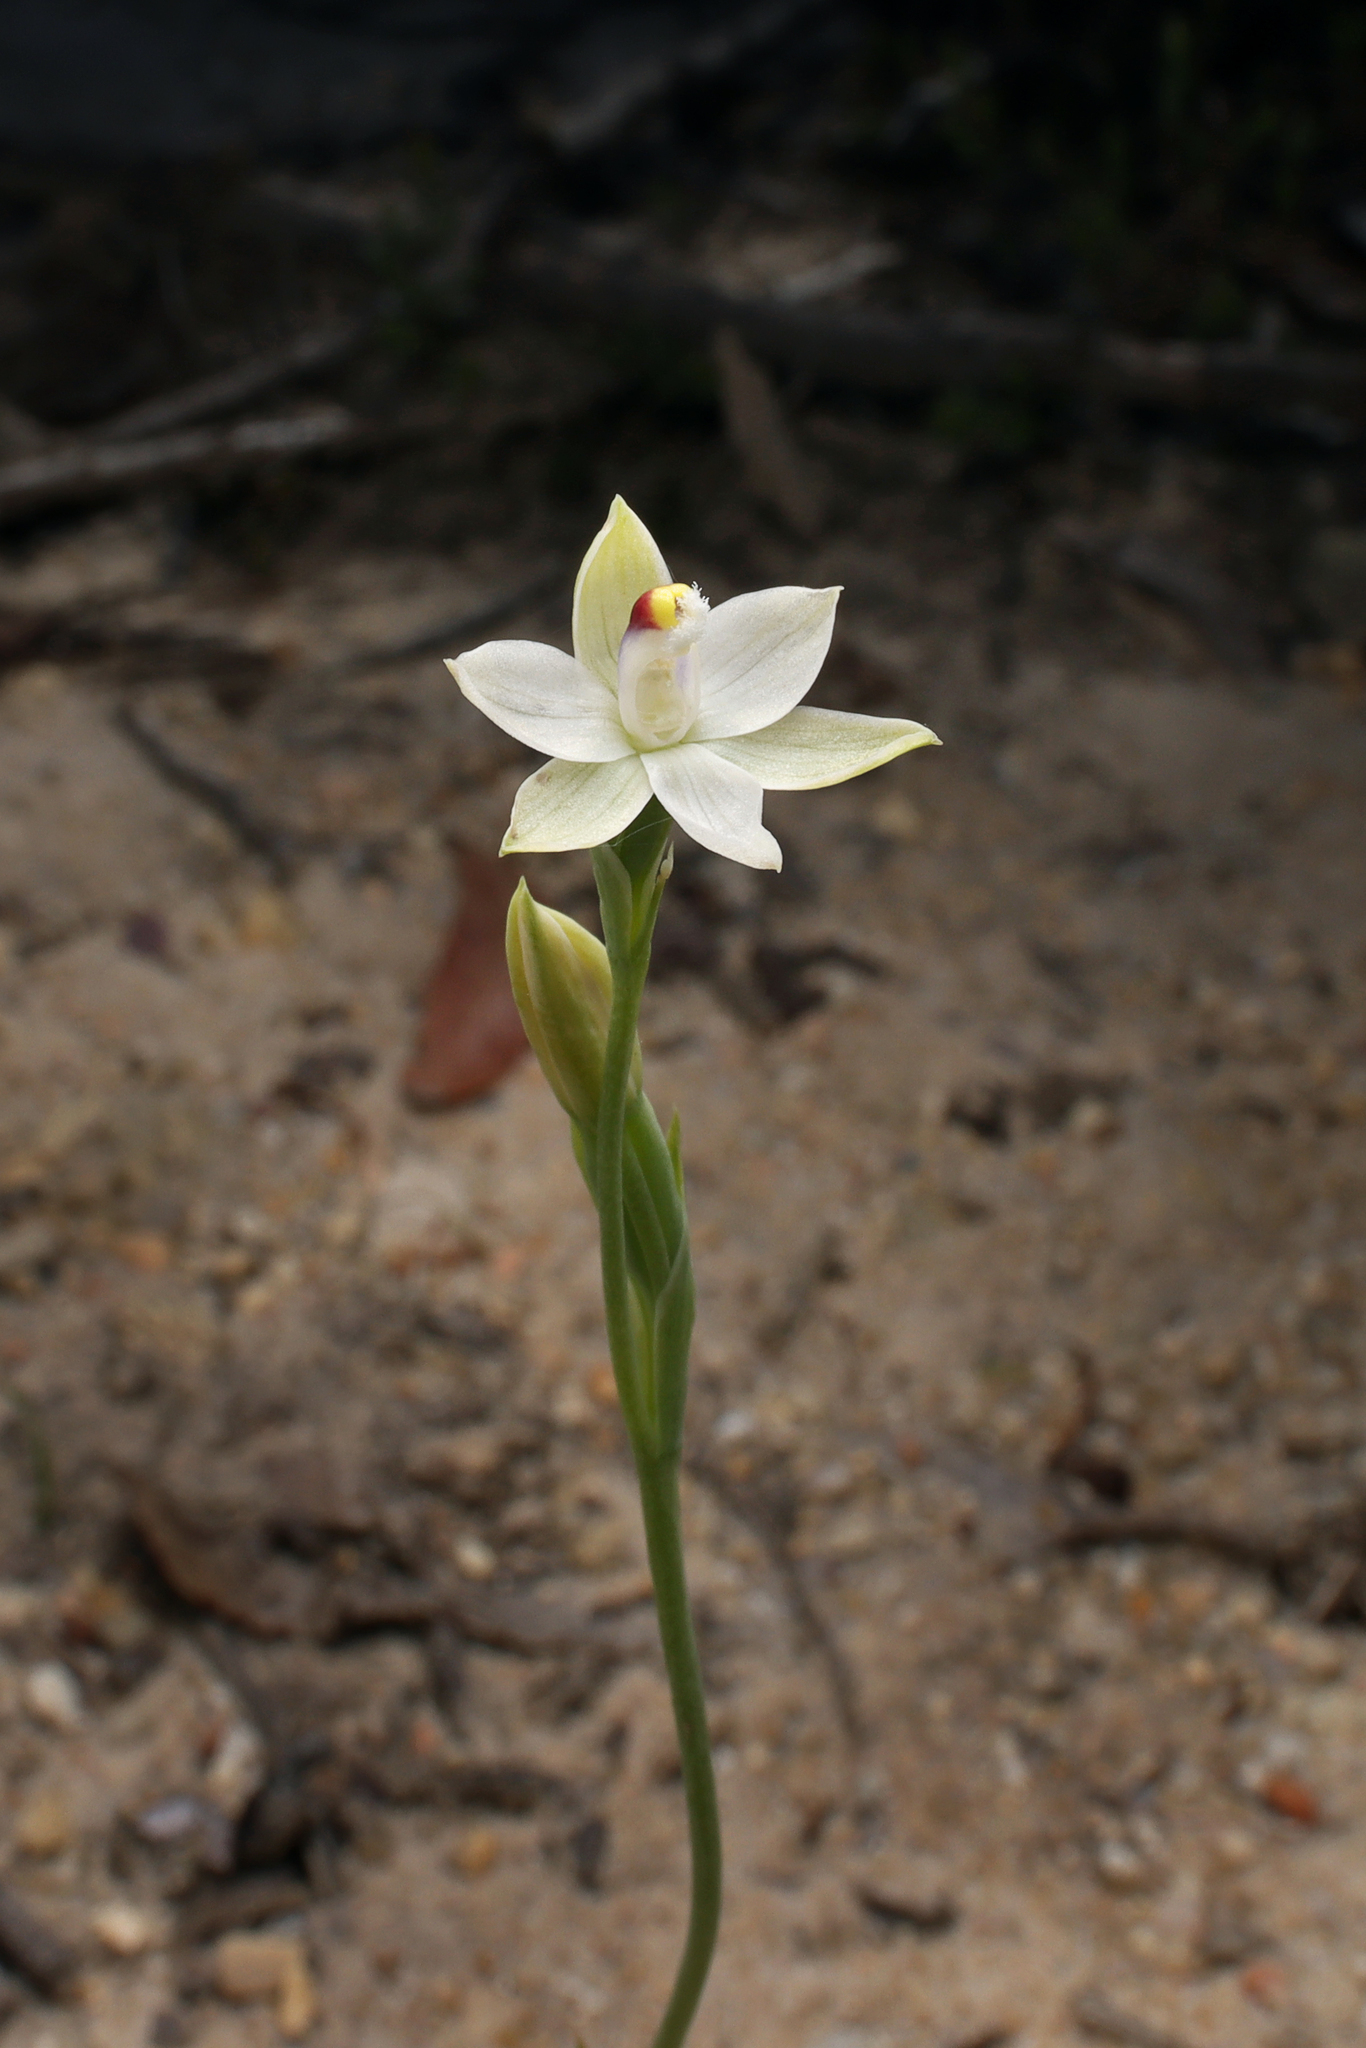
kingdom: Plantae
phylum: Tracheophyta
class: Liliopsida
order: Asparagales
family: Orchidaceae
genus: Thelymitra
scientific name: Thelymitra albiflora
